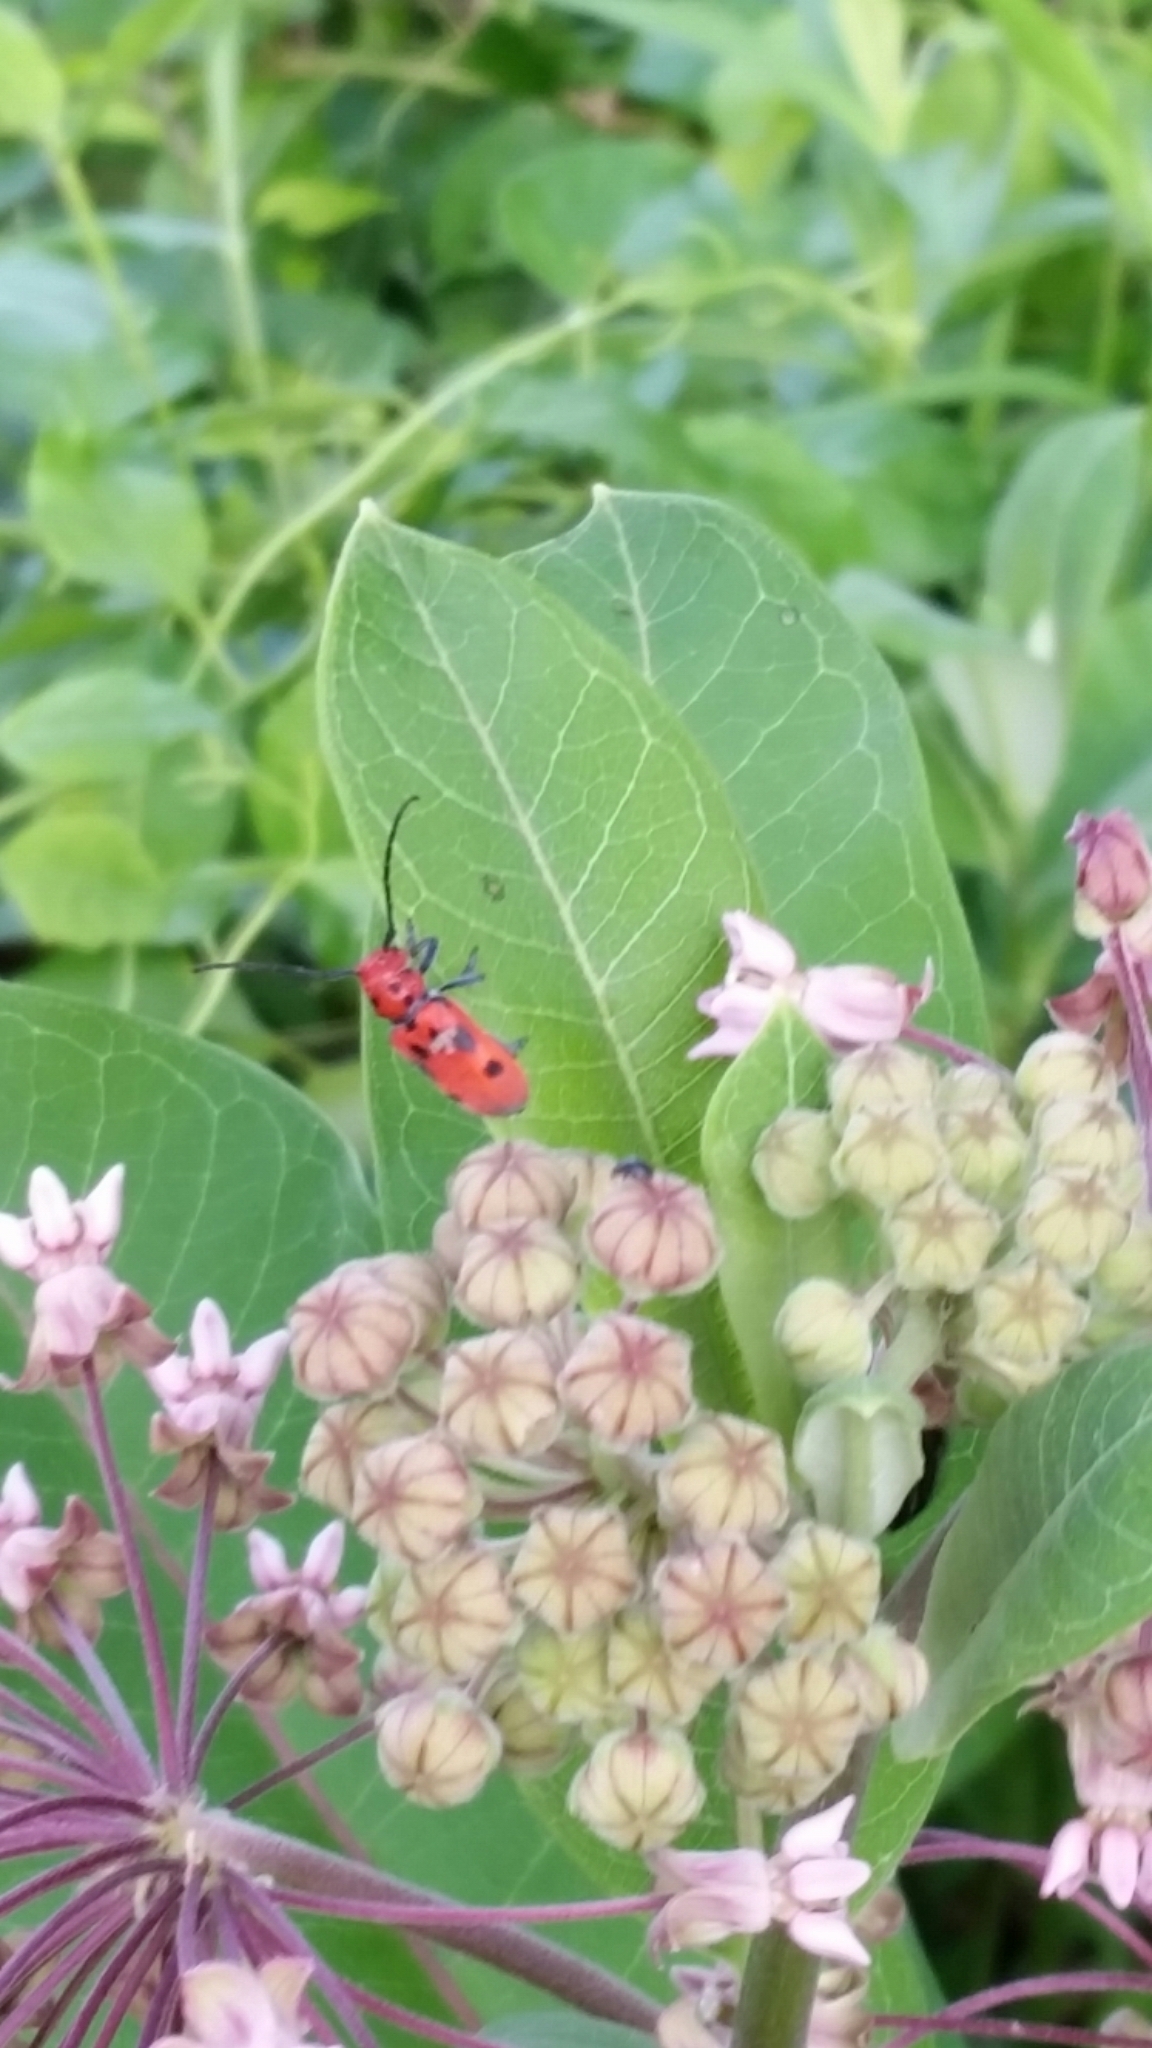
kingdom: Animalia
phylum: Arthropoda
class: Insecta
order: Coleoptera
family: Cerambycidae
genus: Tetraopes
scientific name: Tetraopes tetrophthalmus
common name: Red milkweed beetle
